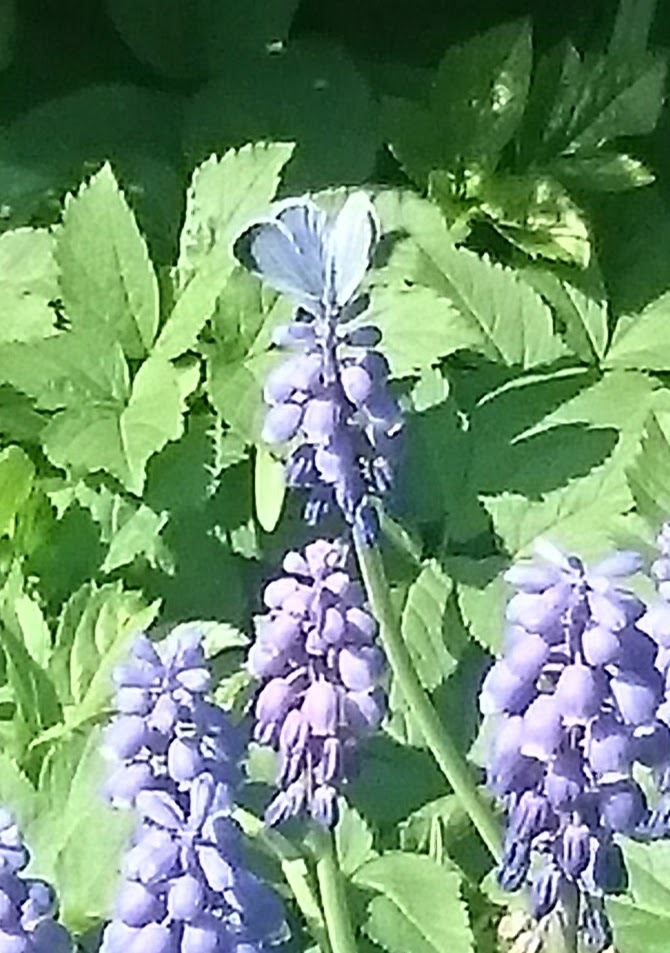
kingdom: Animalia
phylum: Arthropoda
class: Insecta
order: Lepidoptera
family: Lycaenidae
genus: Celastrina
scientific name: Celastrina argiolus
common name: Holly blue
